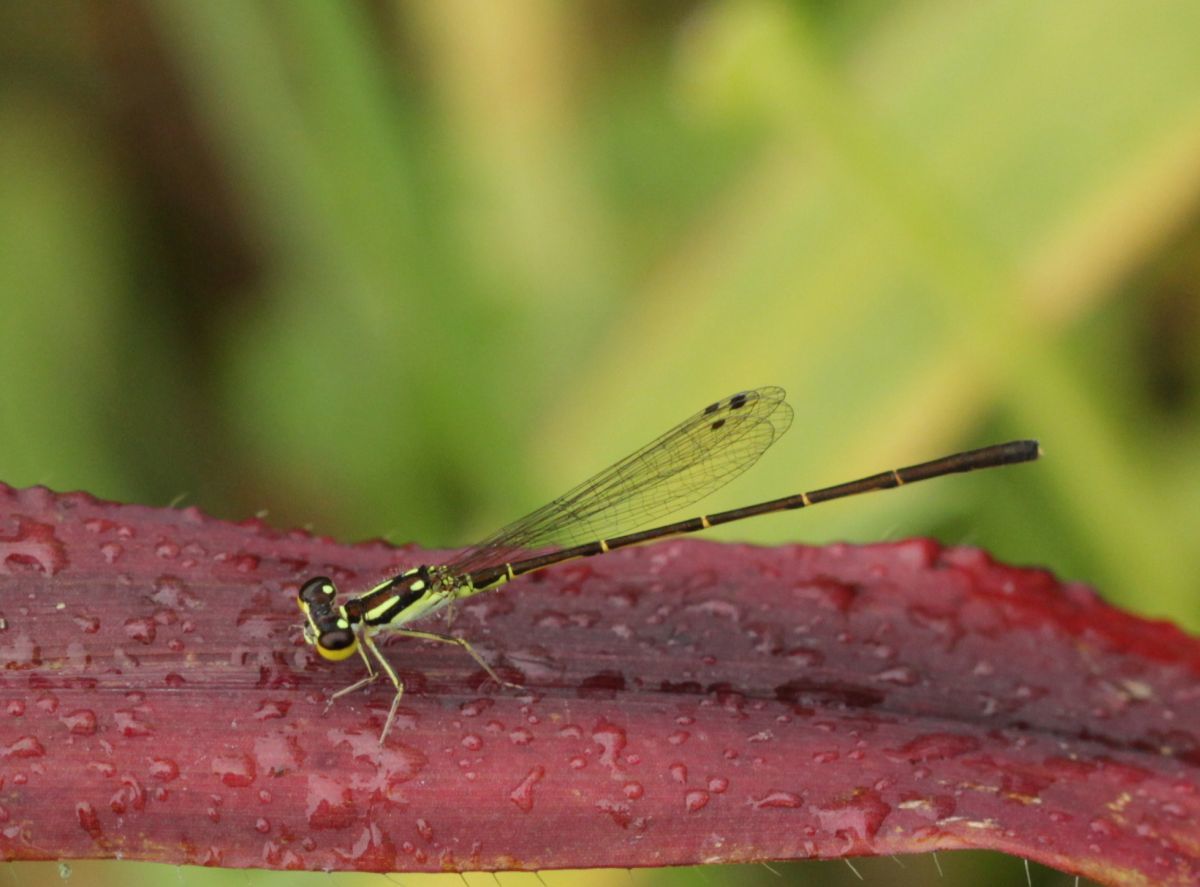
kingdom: Animalia
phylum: Arthropoda
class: Insecta
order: Odonata
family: Coenagrionidae
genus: Ischnura
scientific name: Ischnura posita
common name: Fragile forktail
